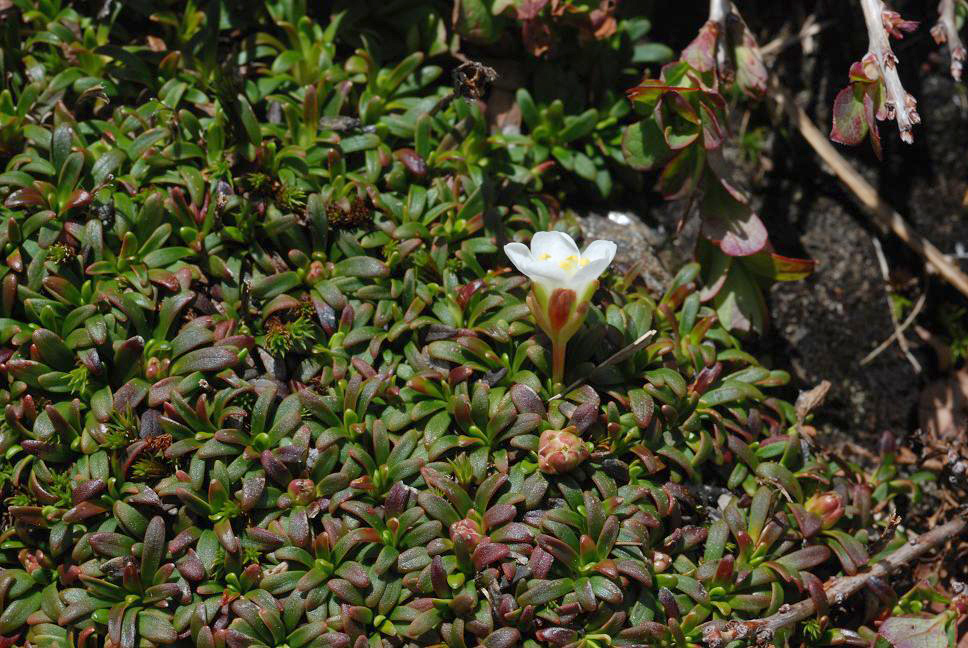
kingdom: Plantae
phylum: Tracheophyta
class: Magnoliopsida
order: Ericales
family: Diapensiaceae
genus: Diapensia
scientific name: Diapensia lapponica
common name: Diapensia
